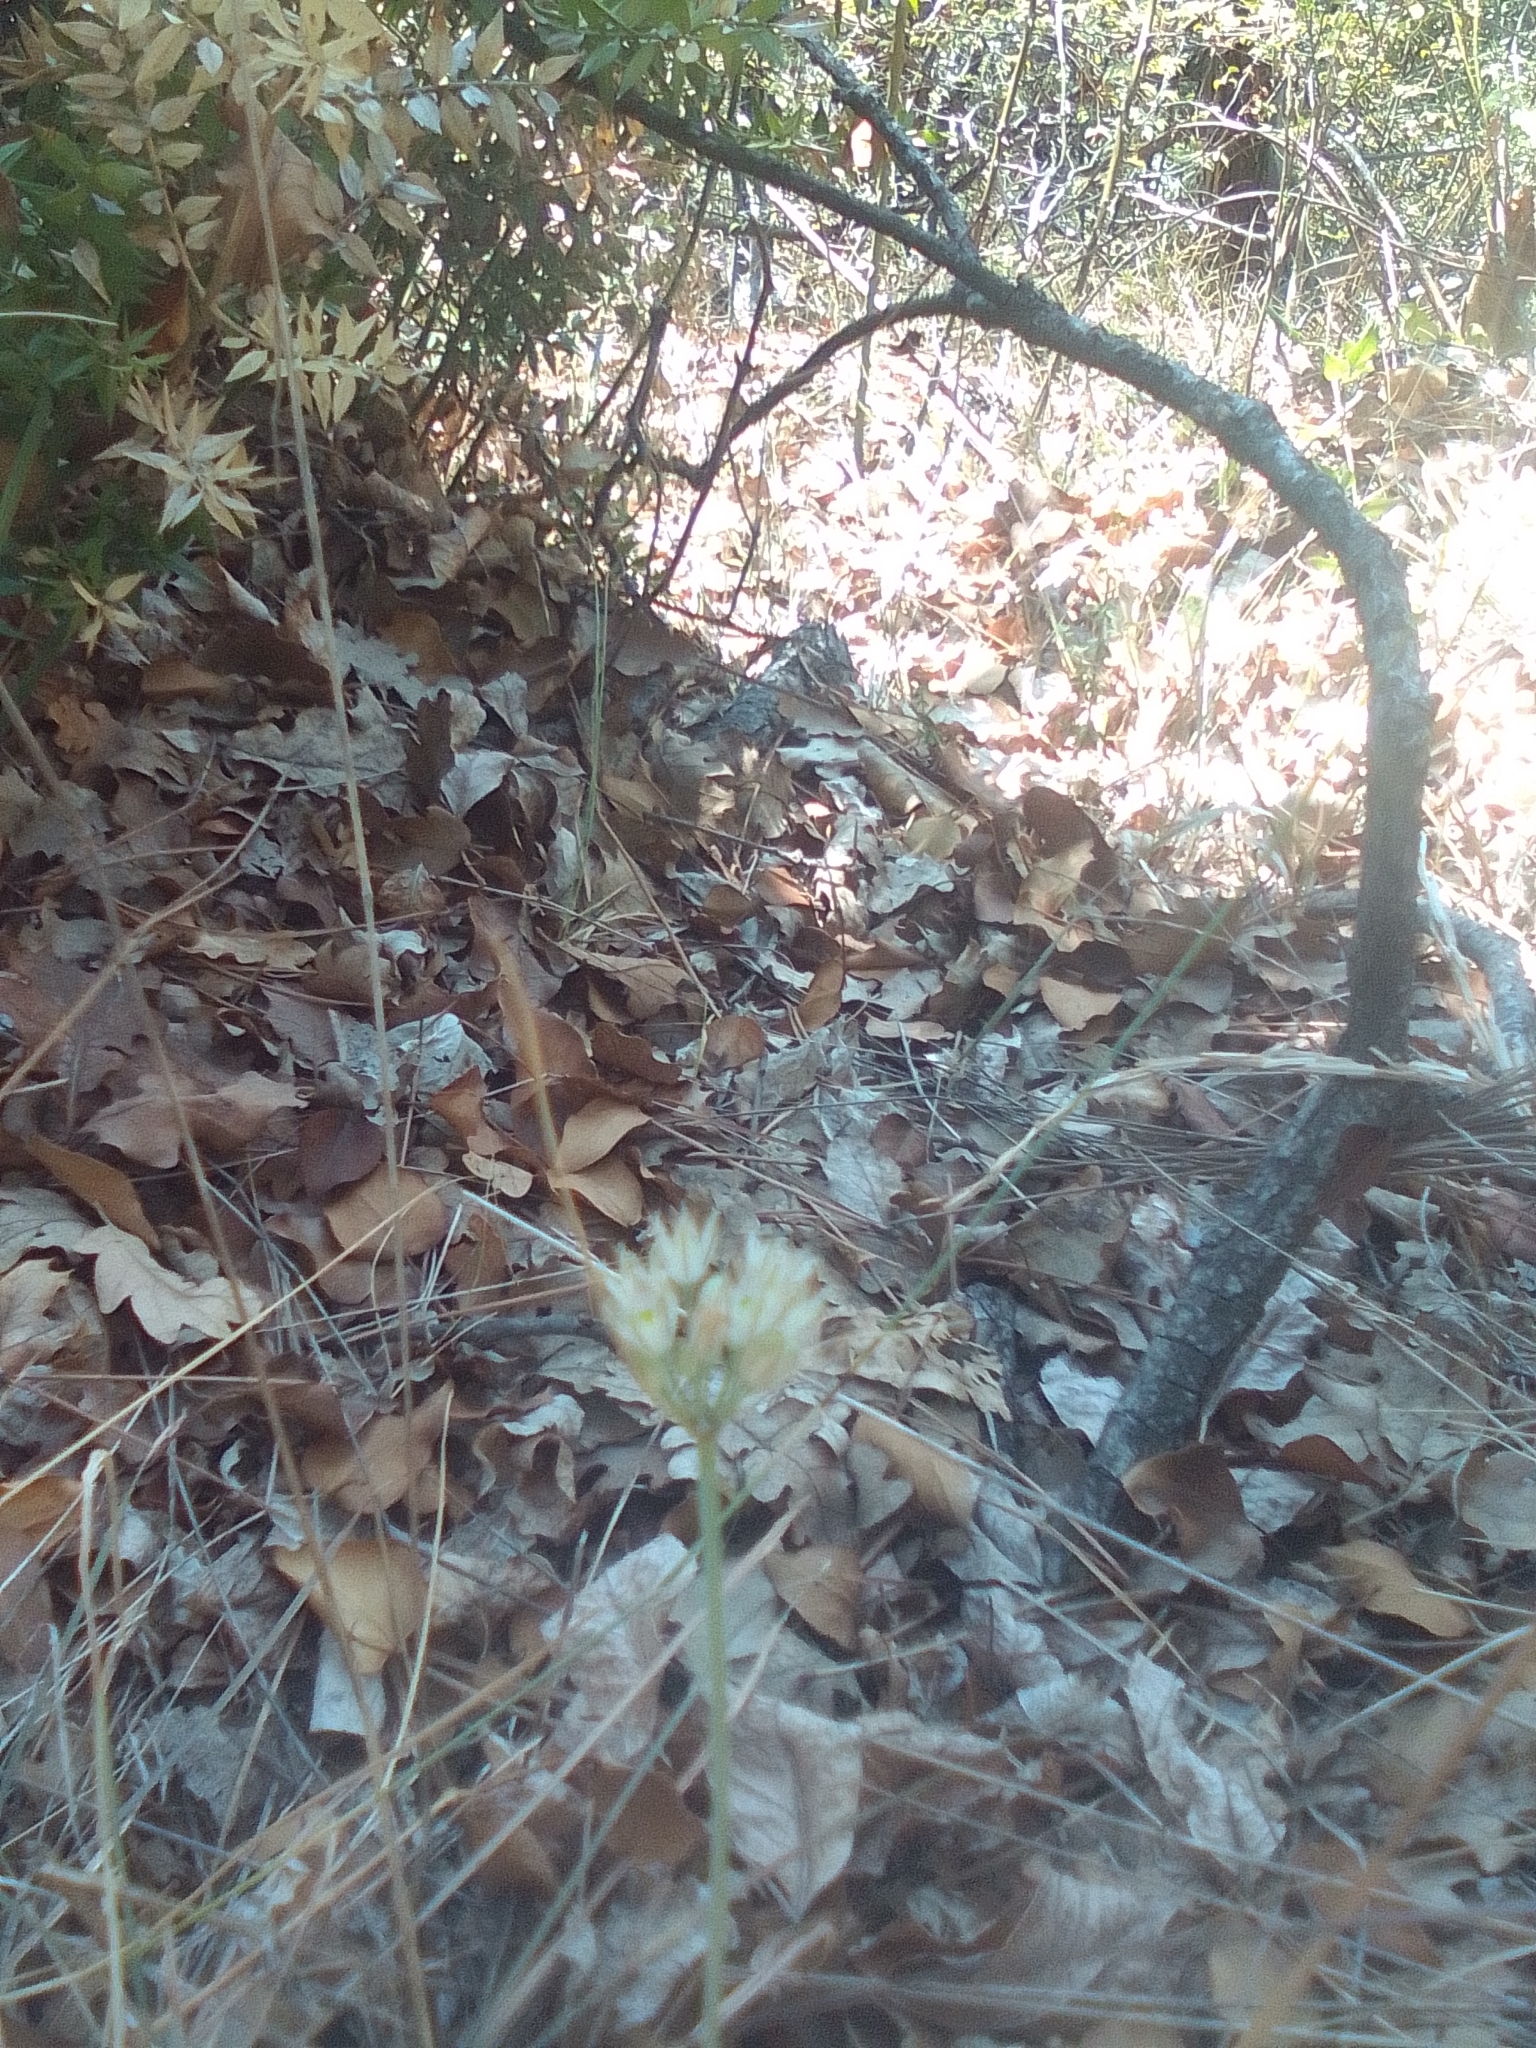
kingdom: Plantae
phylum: Tracheophyta
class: Liliopsida
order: Asparagales
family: Amaryllidaceae
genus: Allium
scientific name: Allium rupestre
